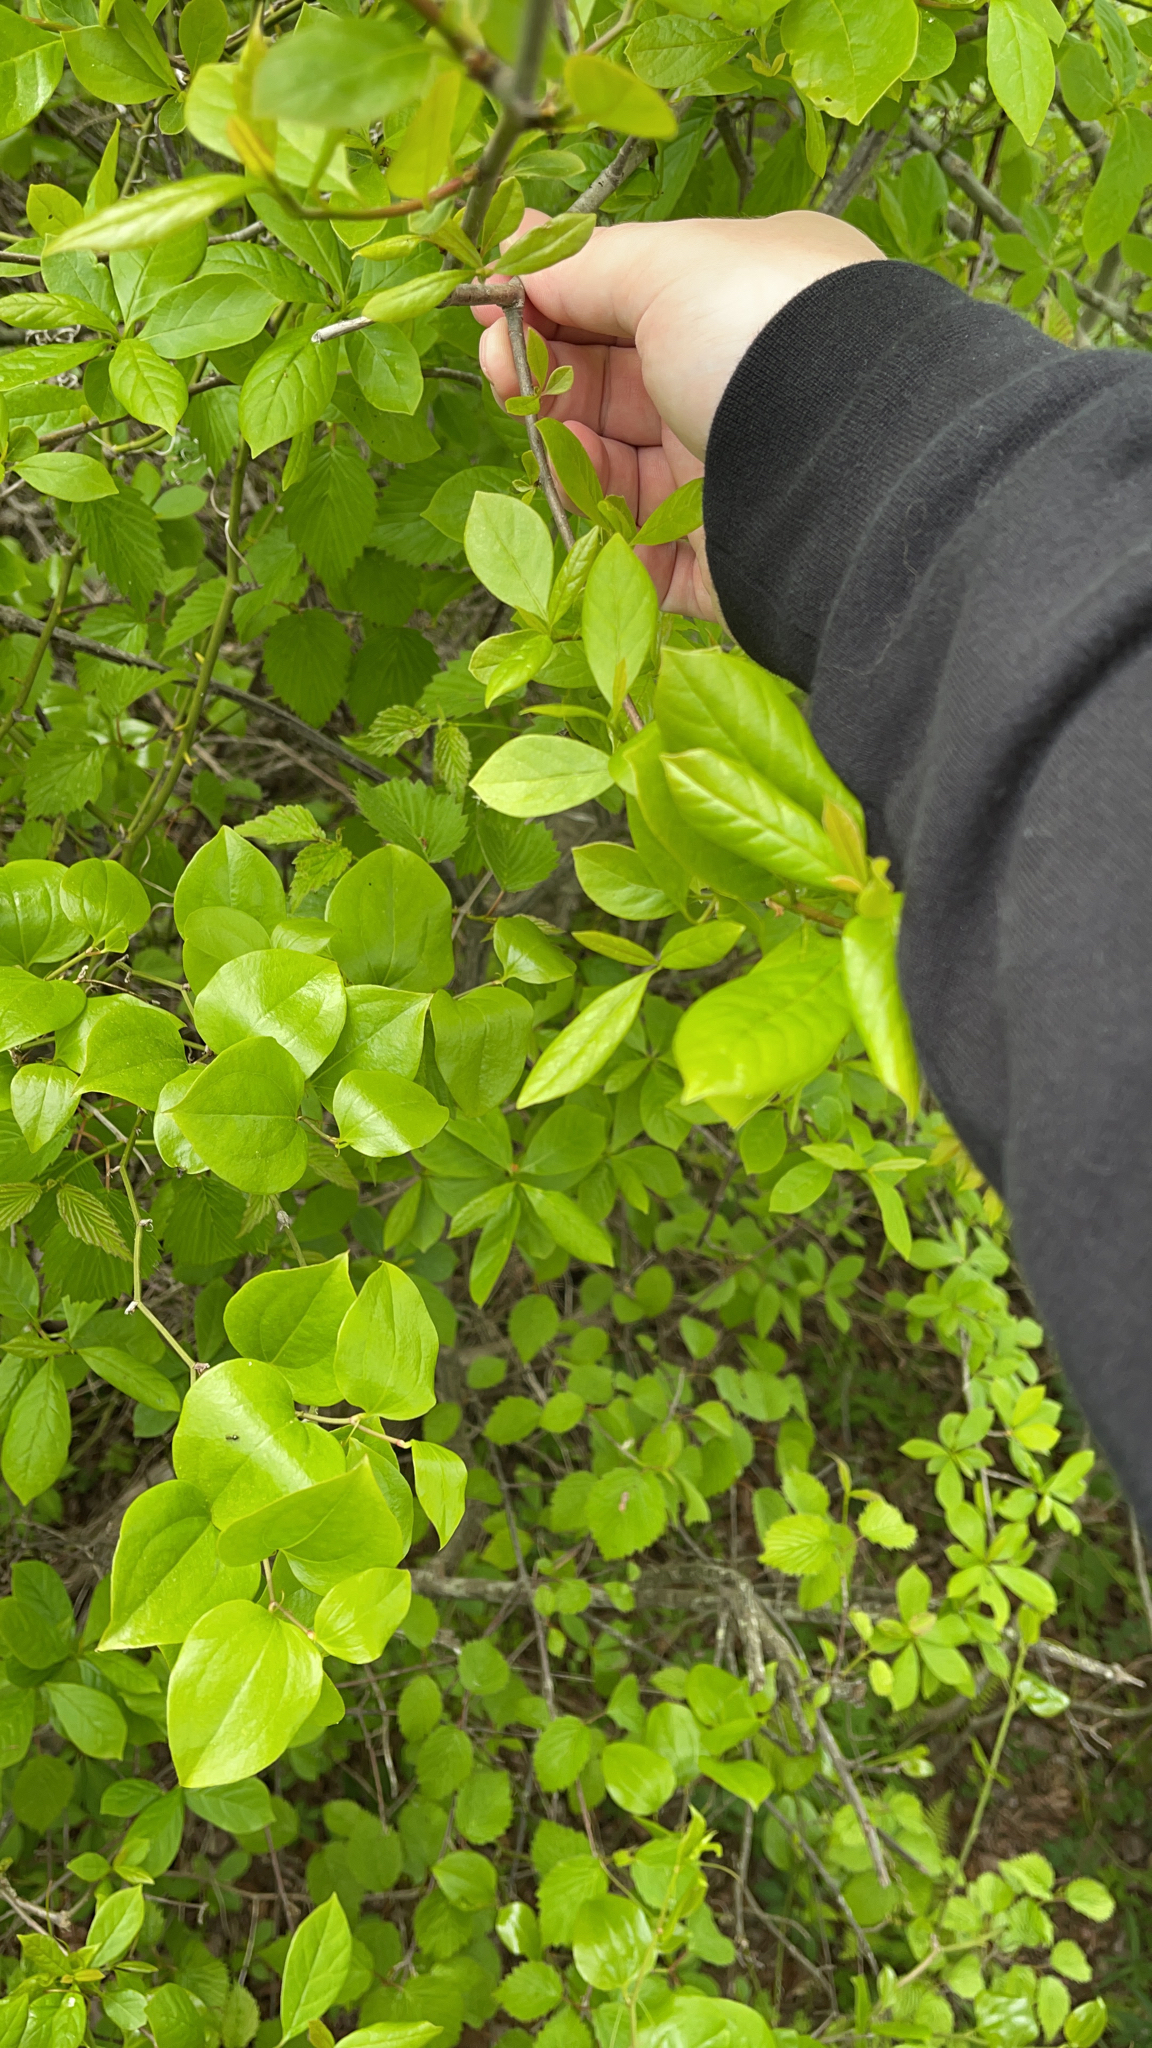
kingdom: Plantae
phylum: Tracheophyta
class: Liliopsida
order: Liliales
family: Smilacaceae
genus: Smilax
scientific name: Smilax rotundifolia
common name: Bullbriar
